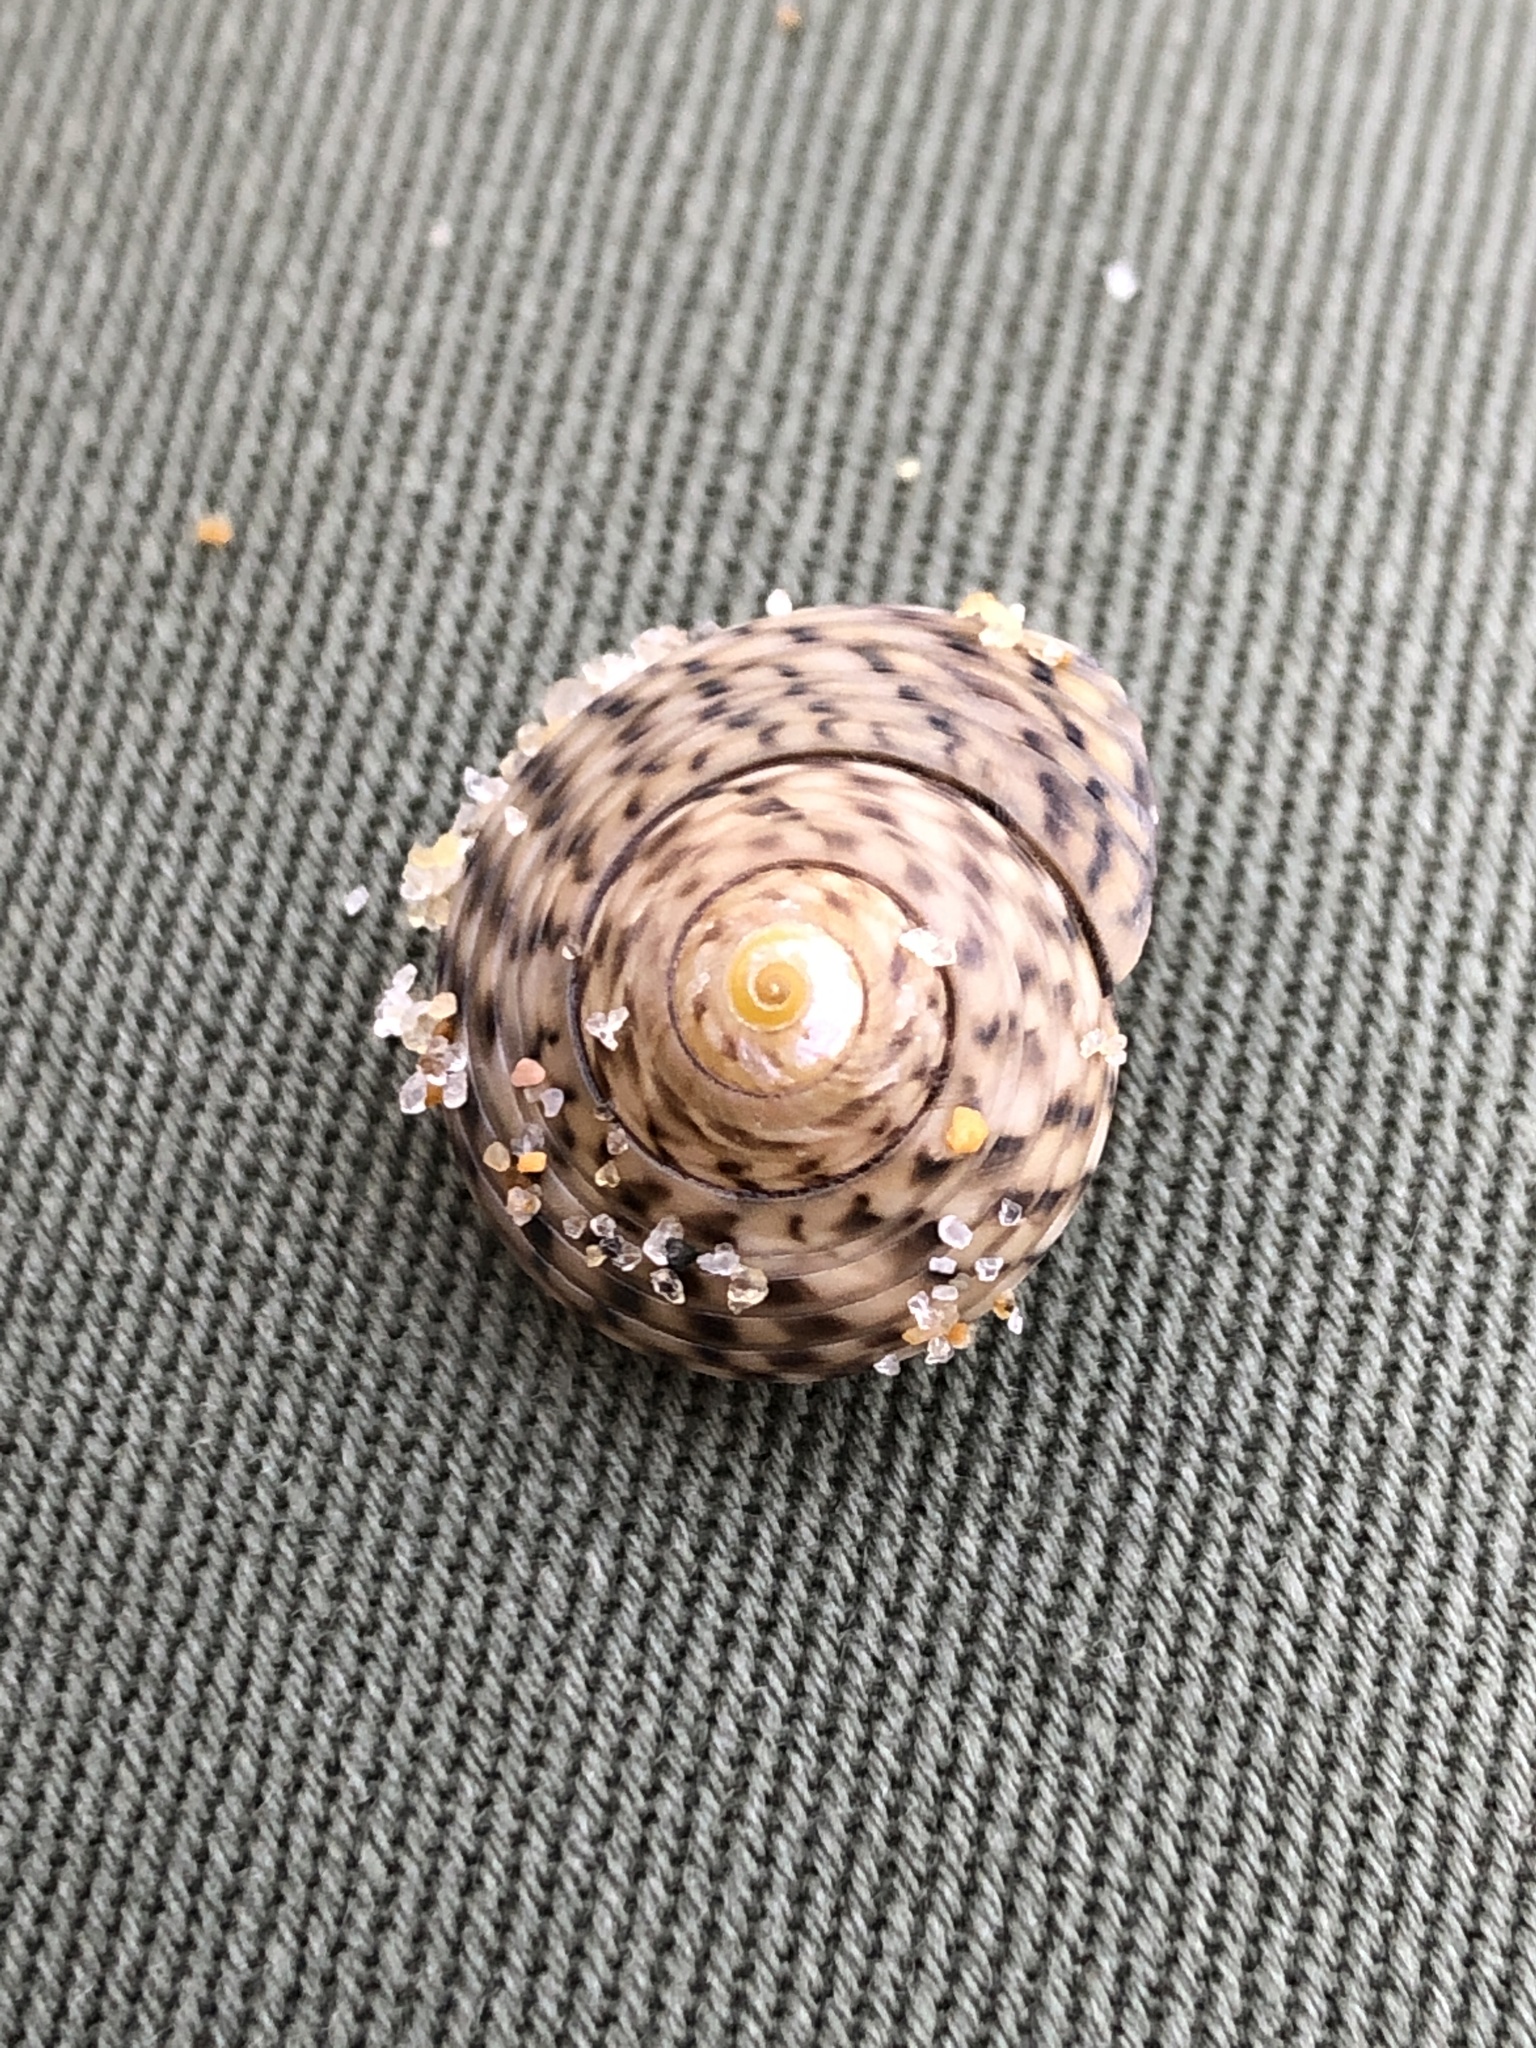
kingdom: Animalia
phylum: Mollusca
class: Gastropoda
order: Trochida
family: Trochidae
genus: Umbonium
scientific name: Umbonium costatum
